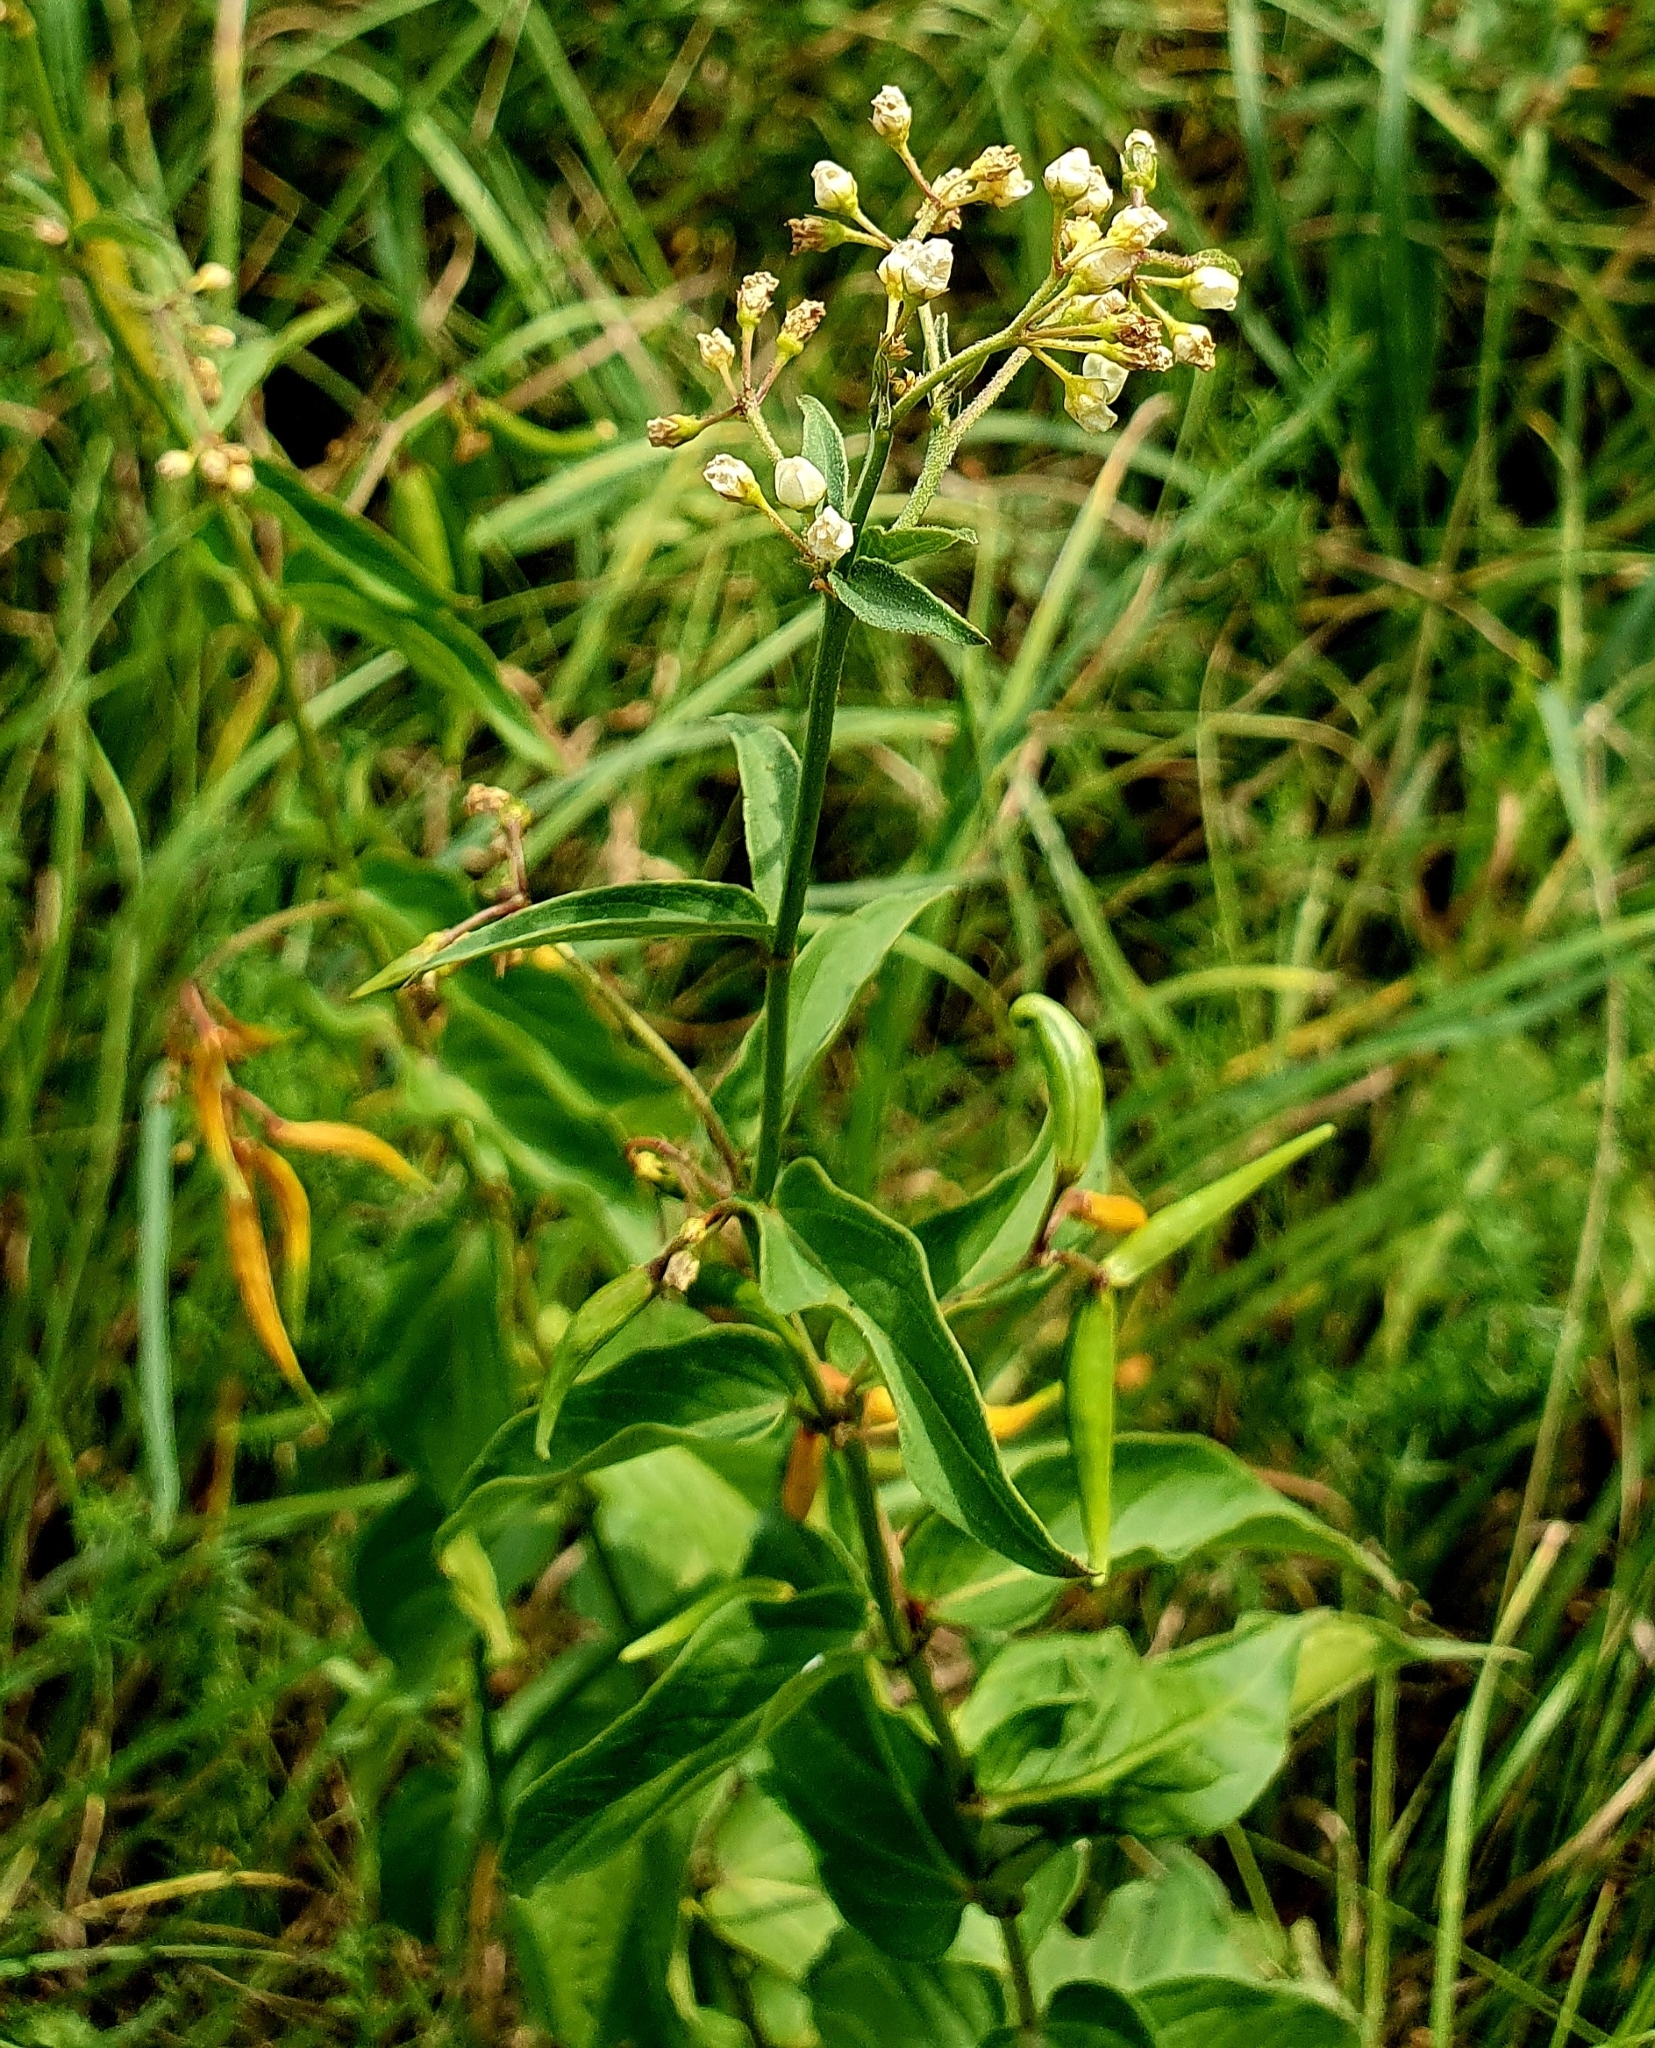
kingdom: Plantae
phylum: Tracheophyta
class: Magnoliopsida
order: Gentianales
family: Apocynaceae
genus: Vincetoxicum
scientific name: Vincetoxicum hirundinaria
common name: White swallowwort
